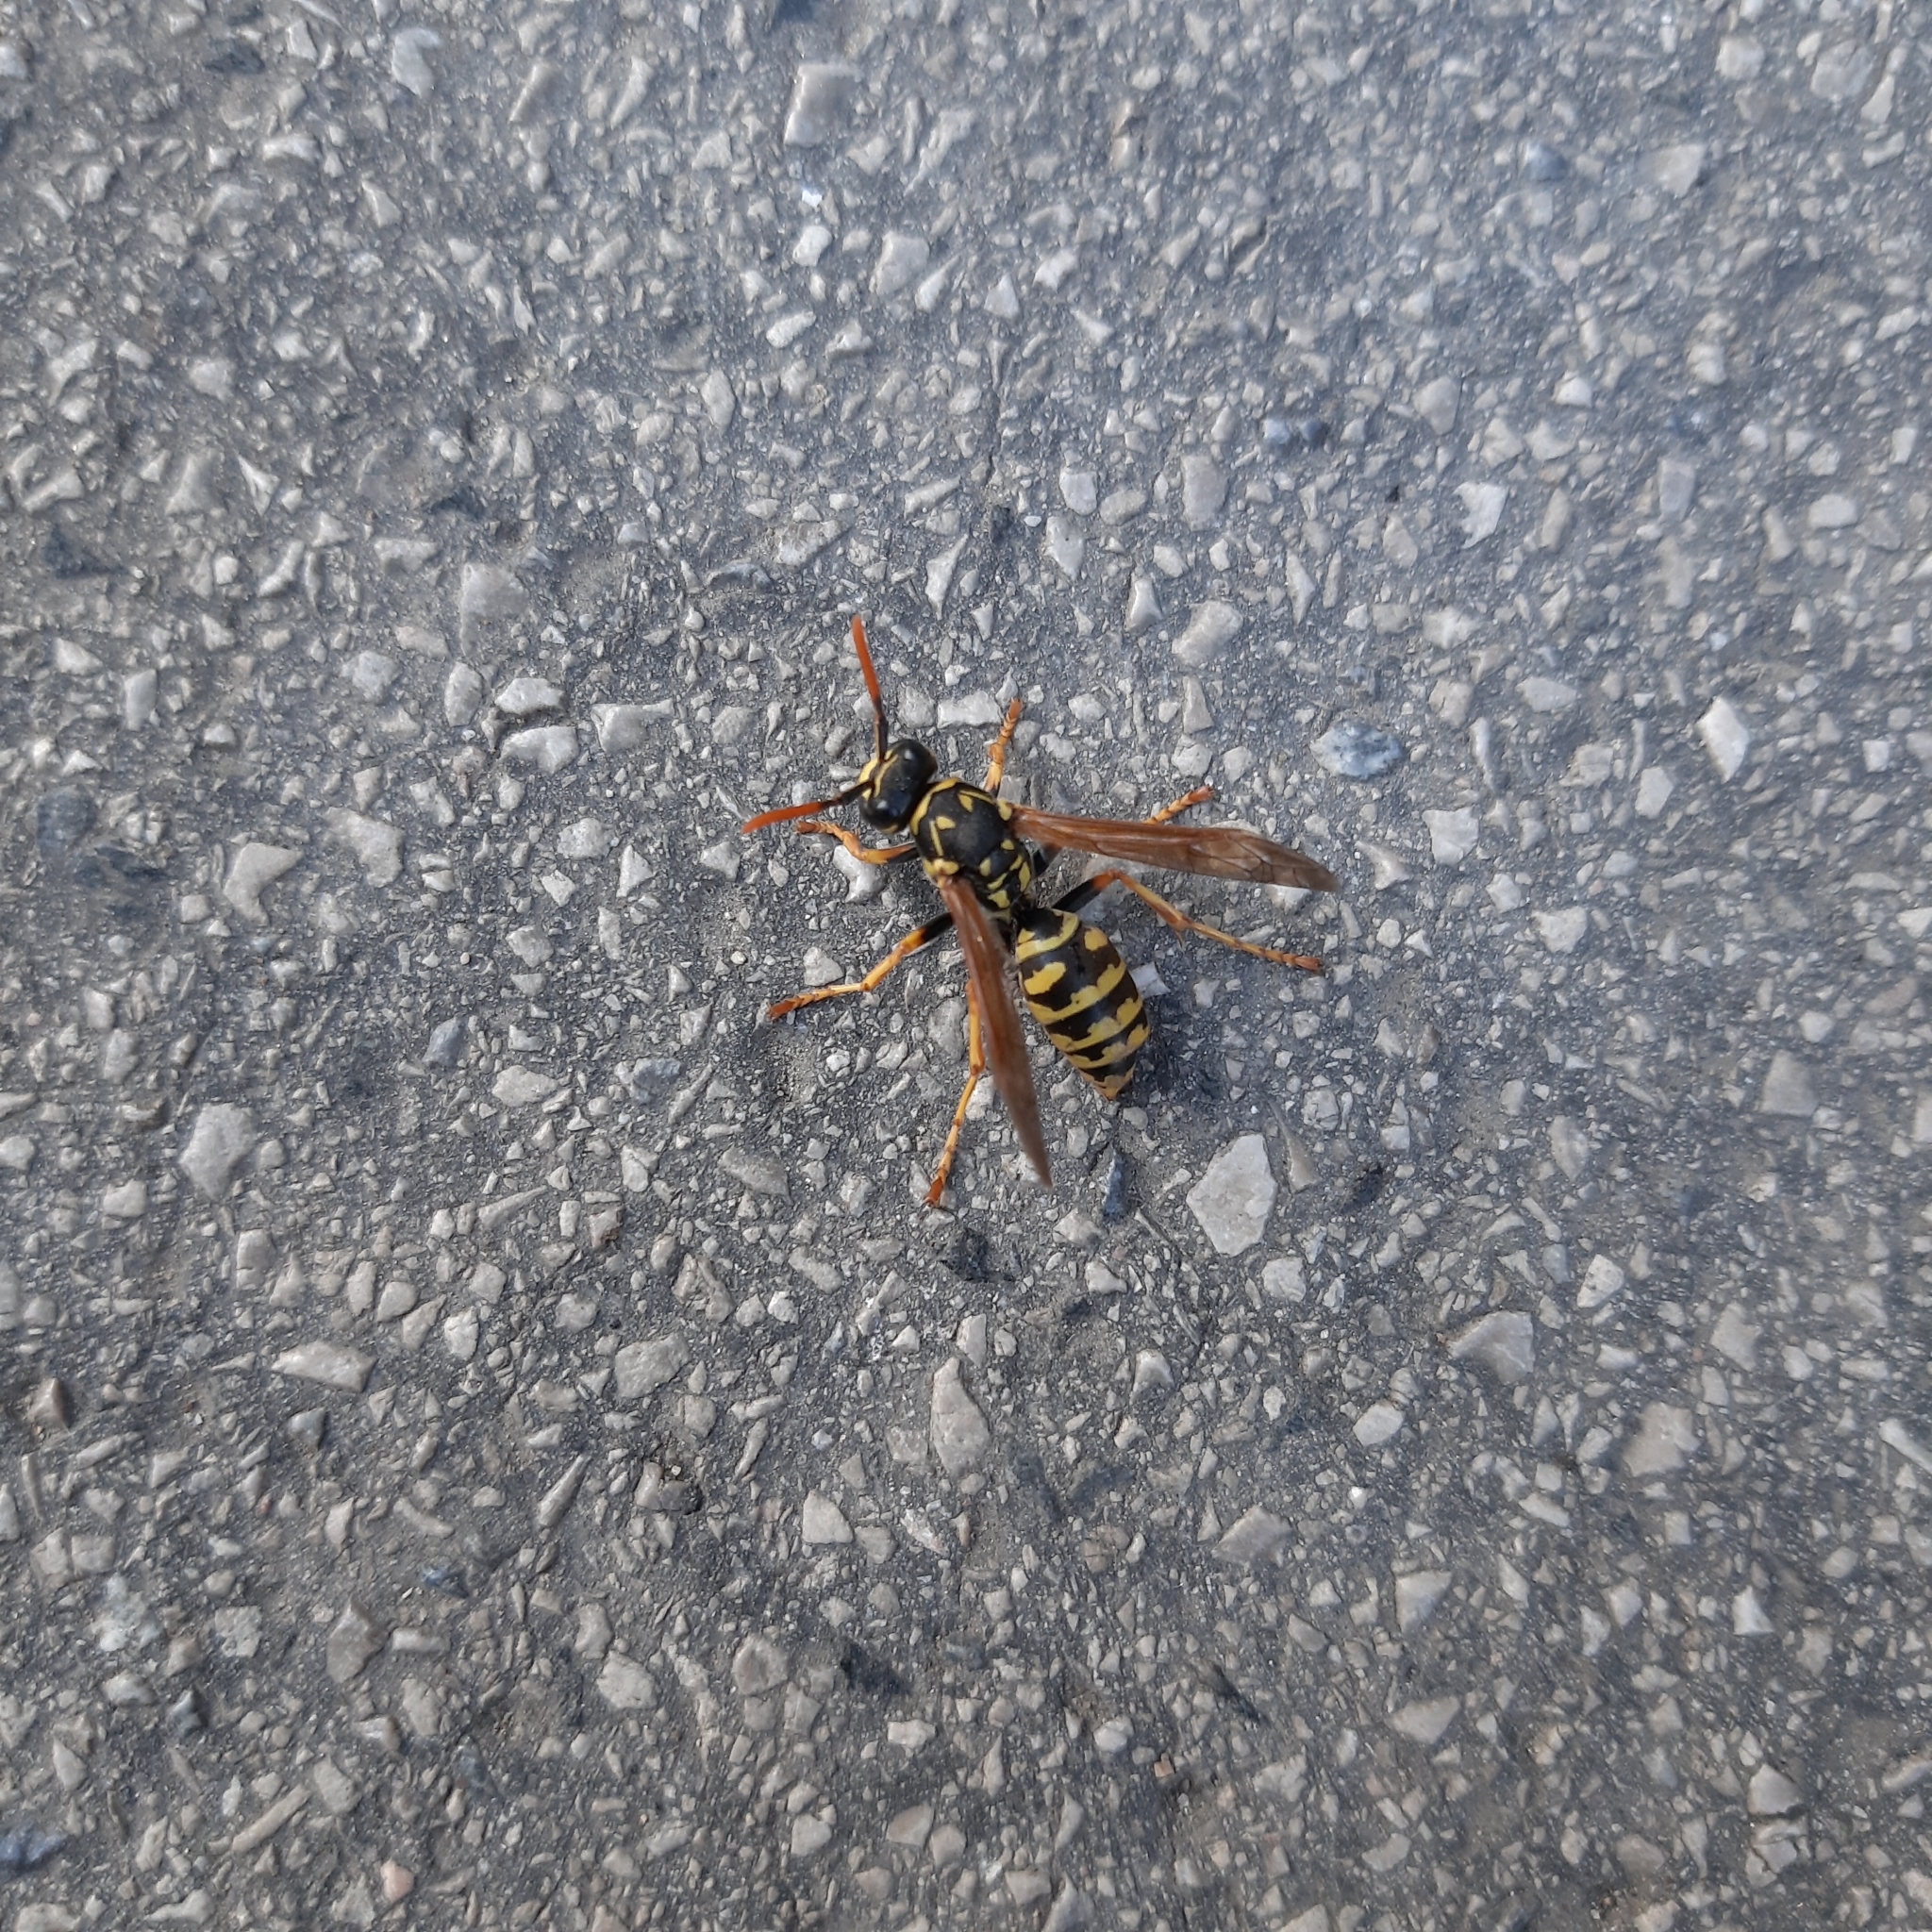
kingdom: Animalia
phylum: Arthropoda
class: Insecta
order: Hymenoptera
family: Eumenidae
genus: Polistes
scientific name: Polistes dominula
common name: Paper wasp
